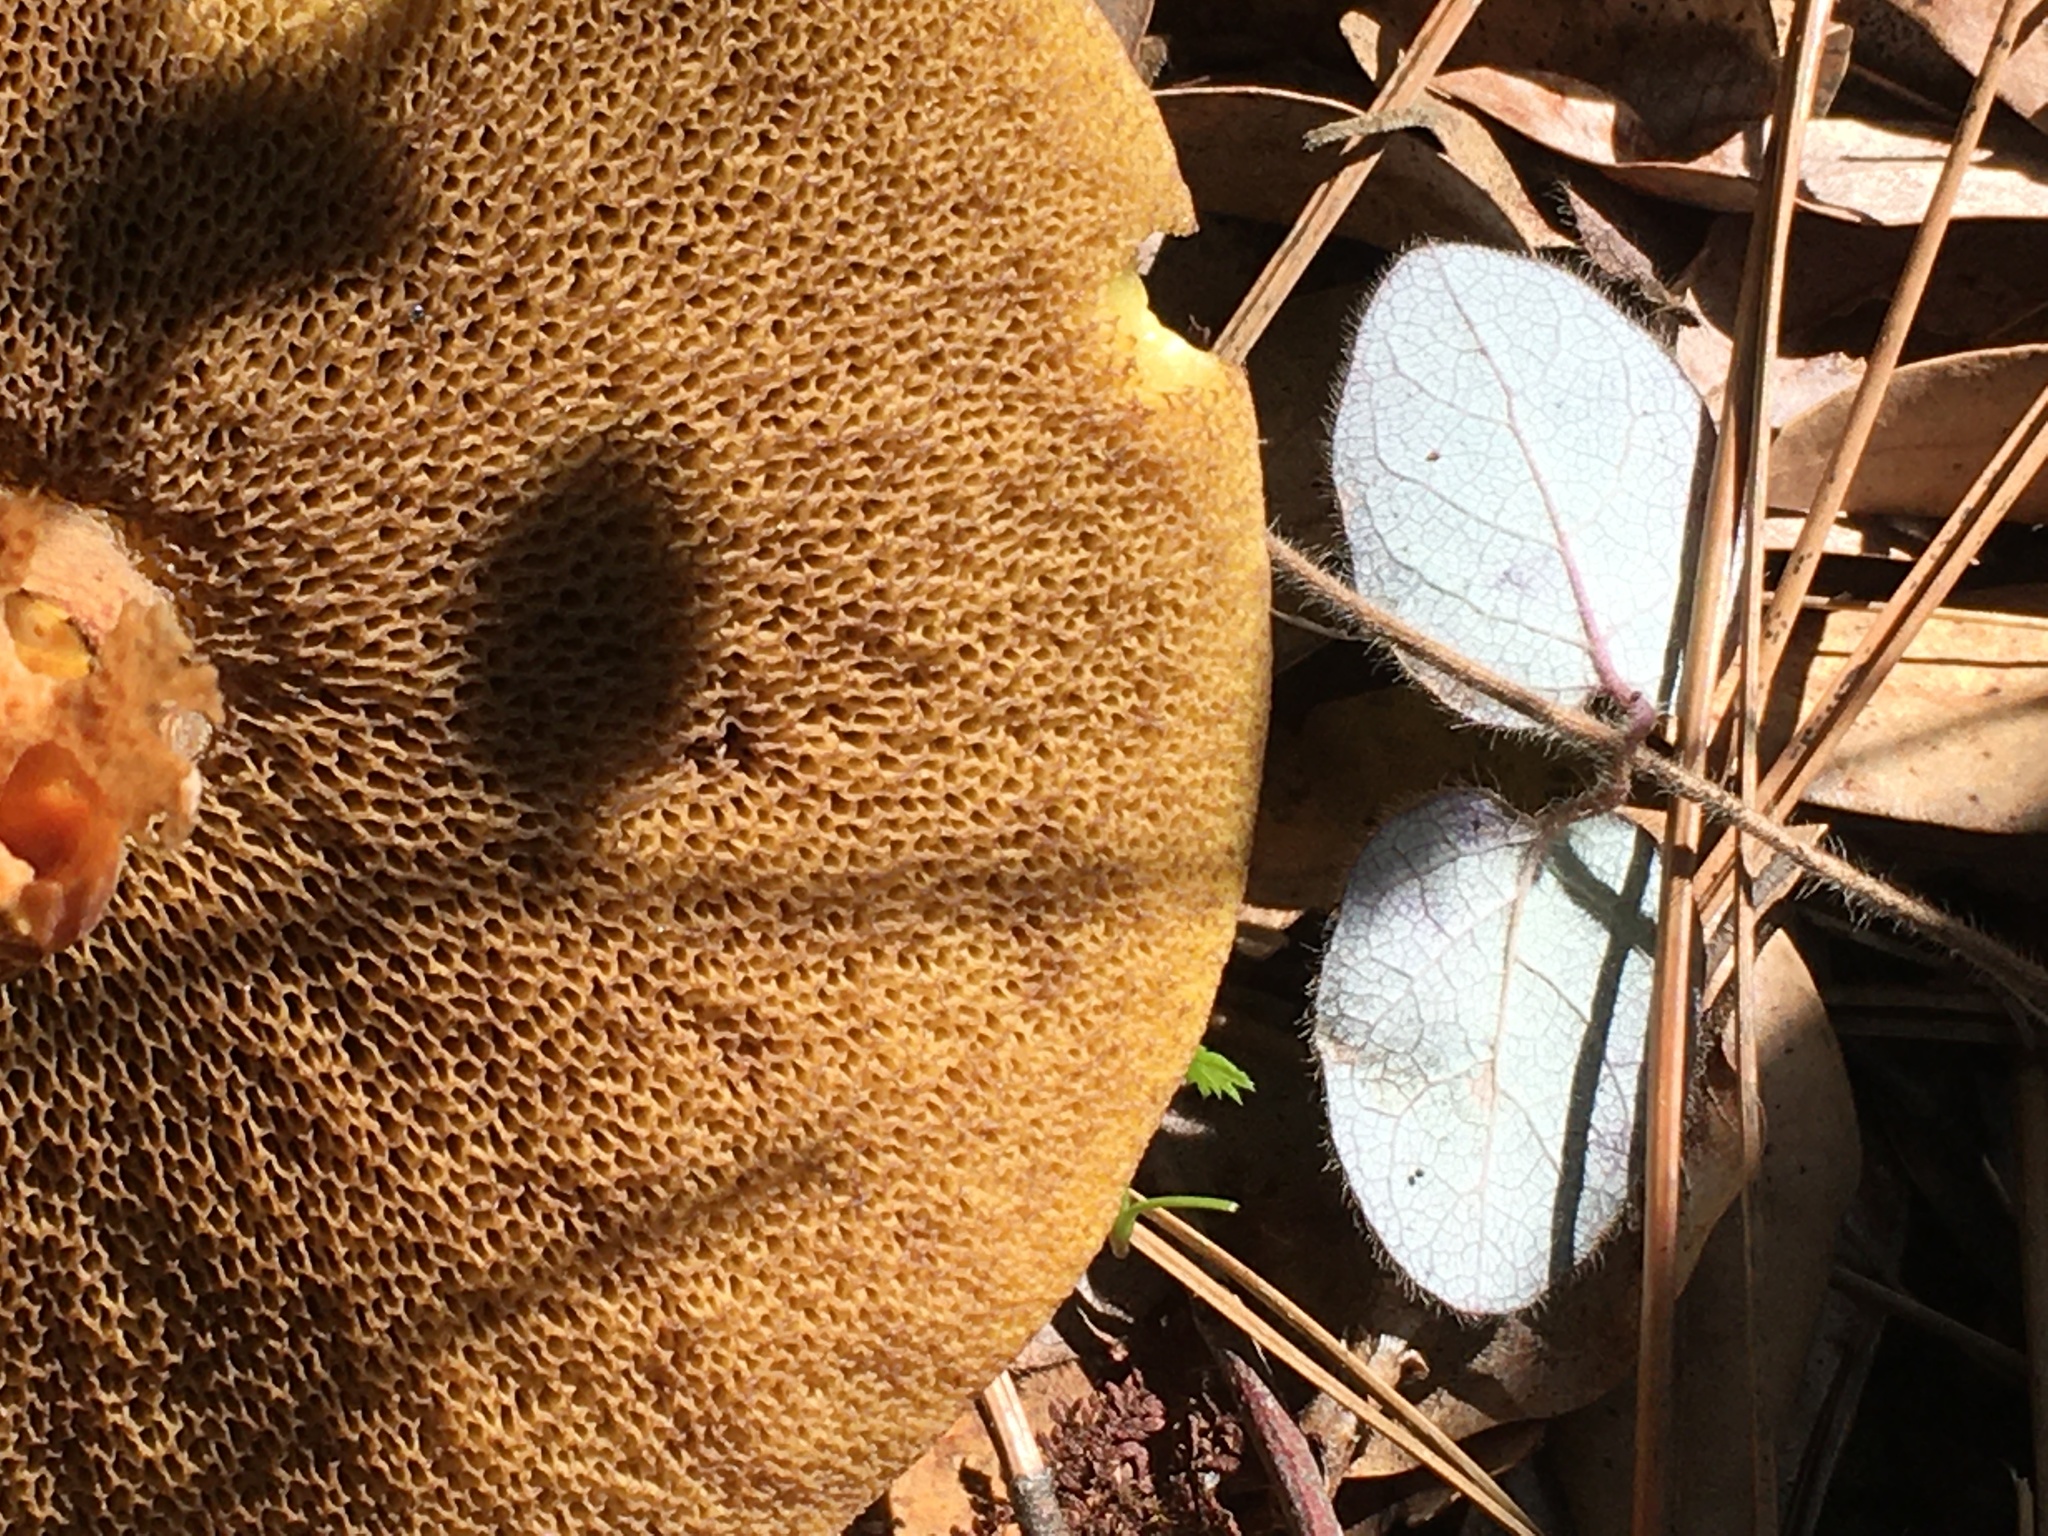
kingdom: Fungi
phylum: Basidiomycota
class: Agaricomycetes
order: Boletales
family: Suillaceae
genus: Suillus
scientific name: Suillus fuscotomentosus
